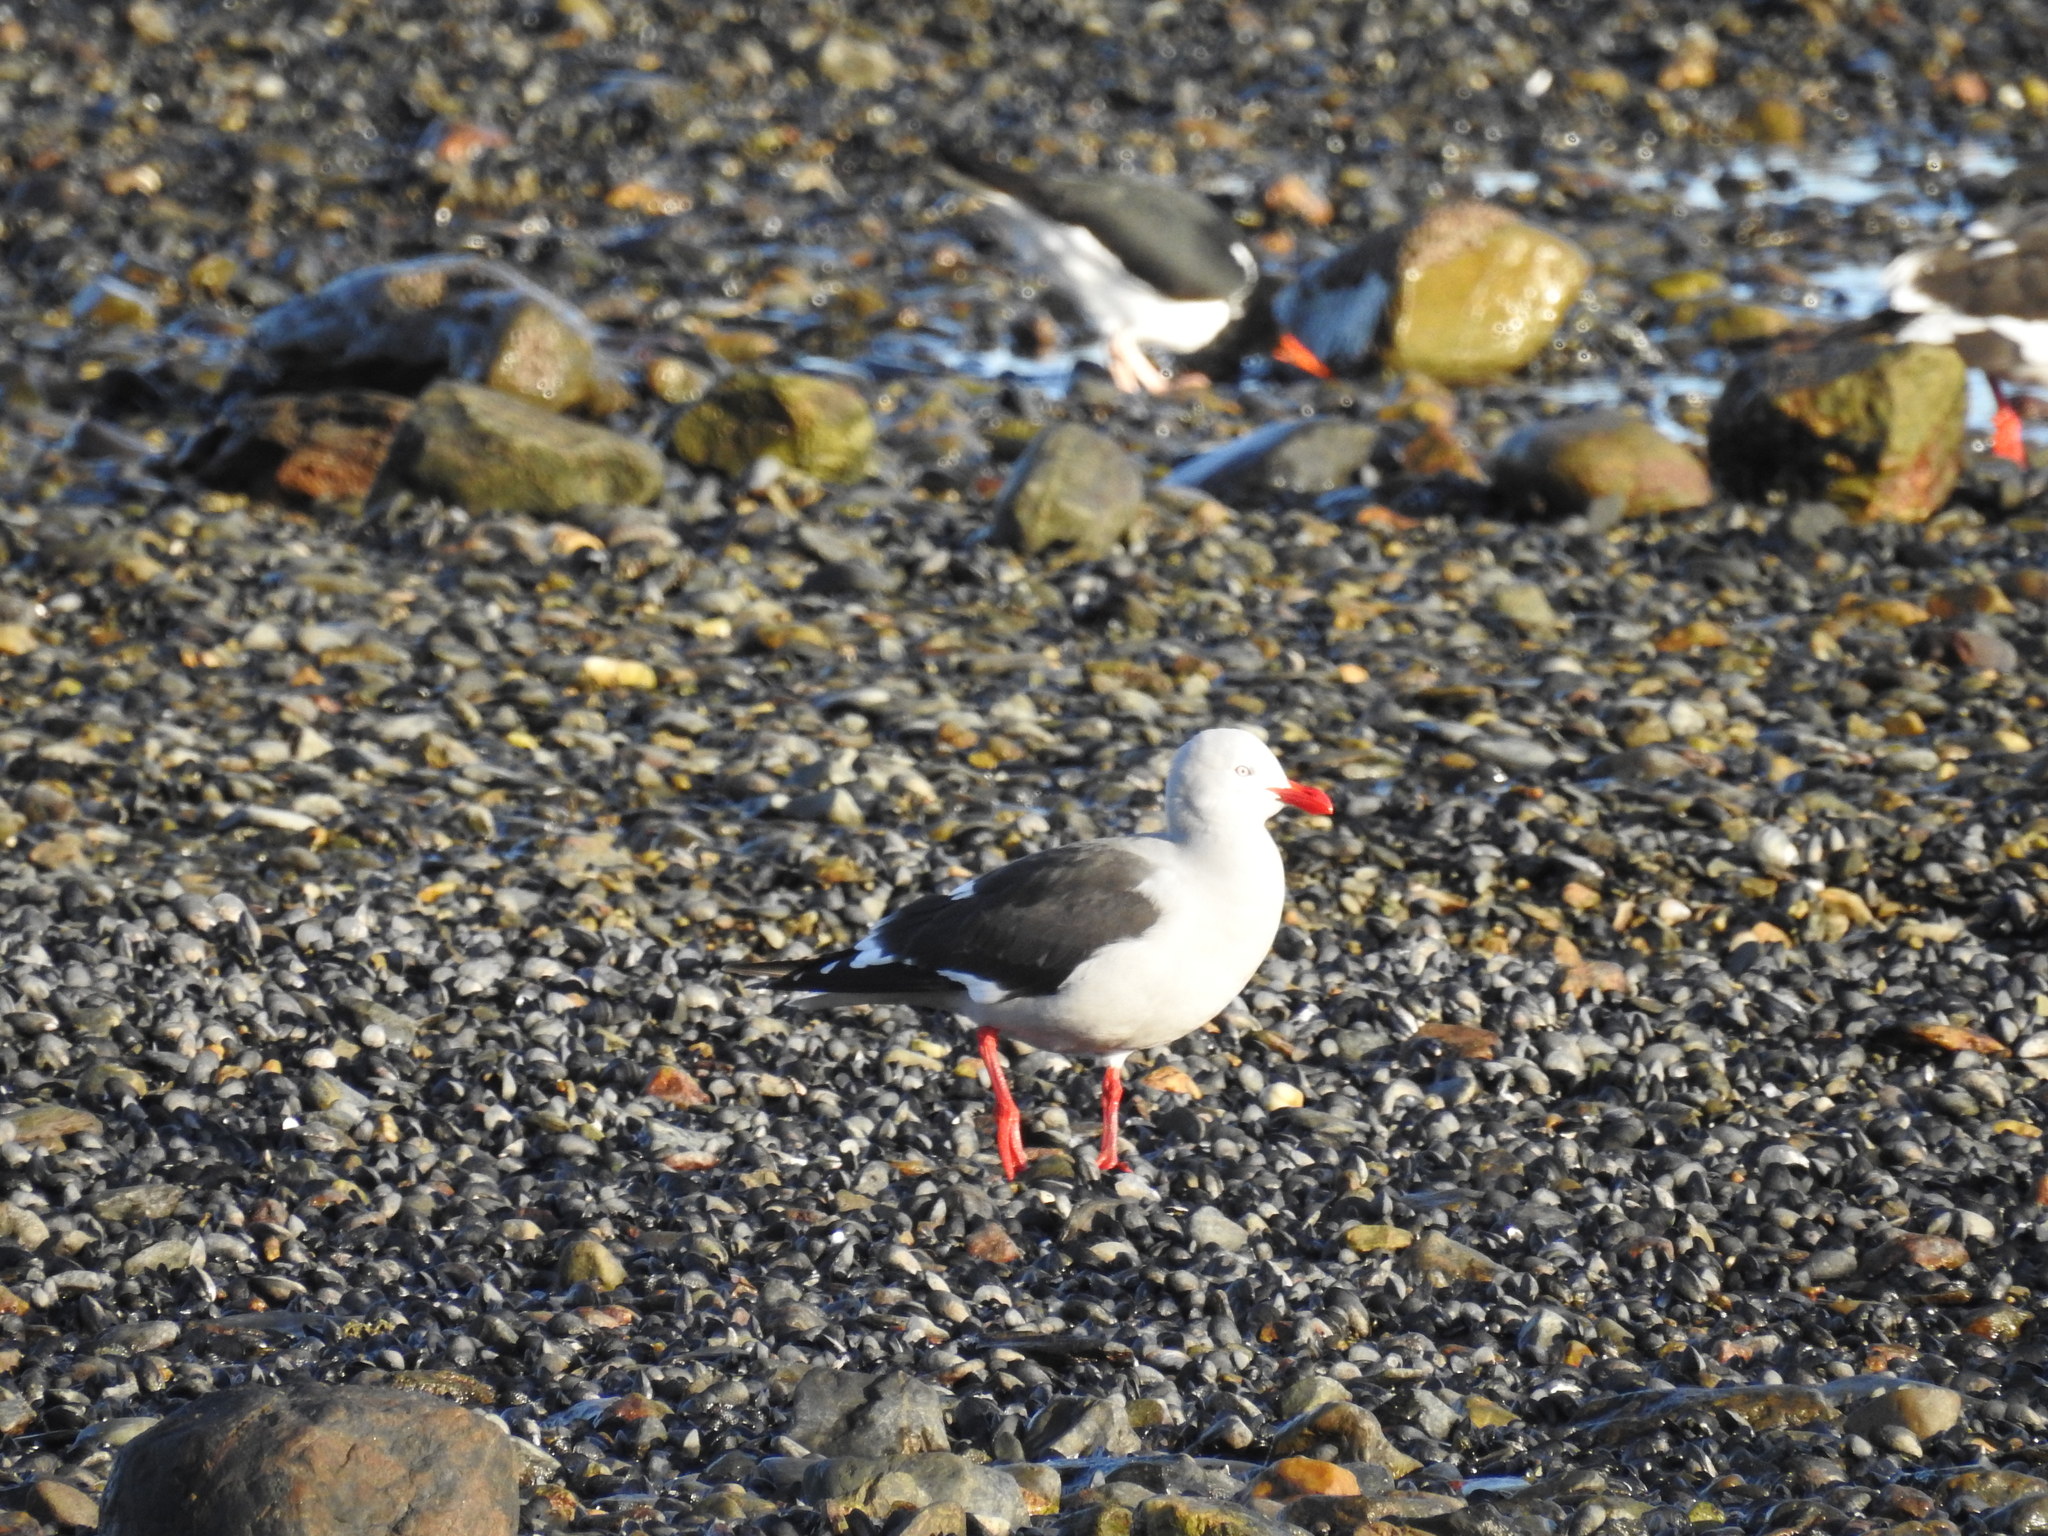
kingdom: Animalia
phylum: Chordata
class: Aves
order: Charadriiformes
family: Laridae
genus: Leucophaeus
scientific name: Leucophaeus scoresbii
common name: Dolphin gull
